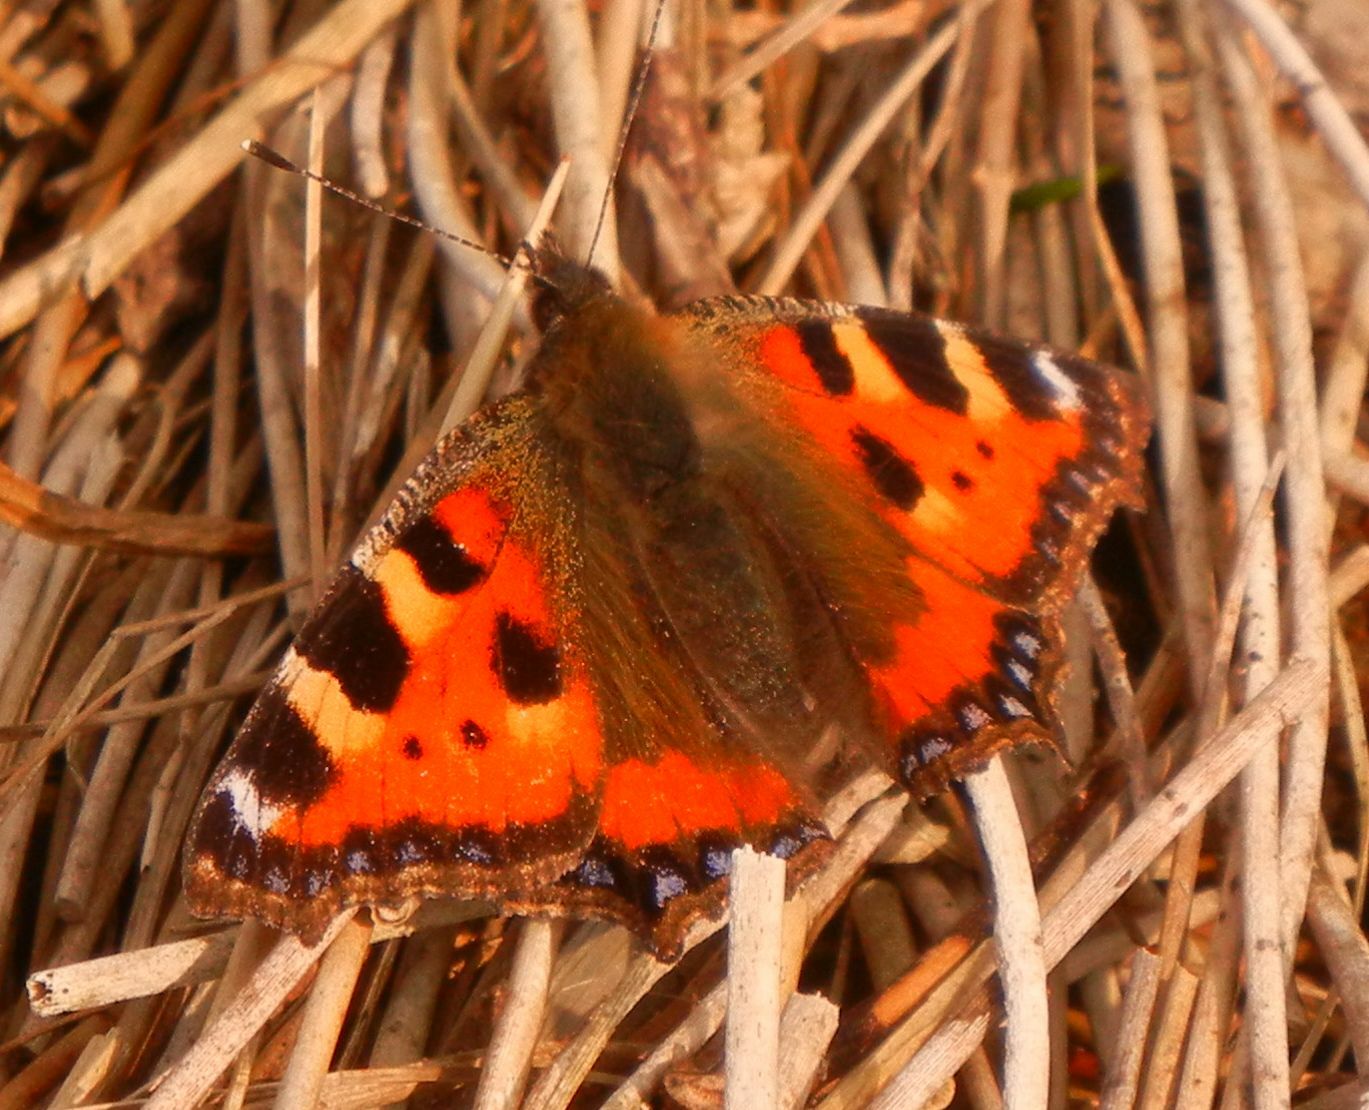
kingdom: Animalia
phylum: Arthropoda
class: Insecta
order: Lepidoptera
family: Nymphalidae
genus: Aglais
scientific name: Aglais urticae
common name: Small tortoiseshell
